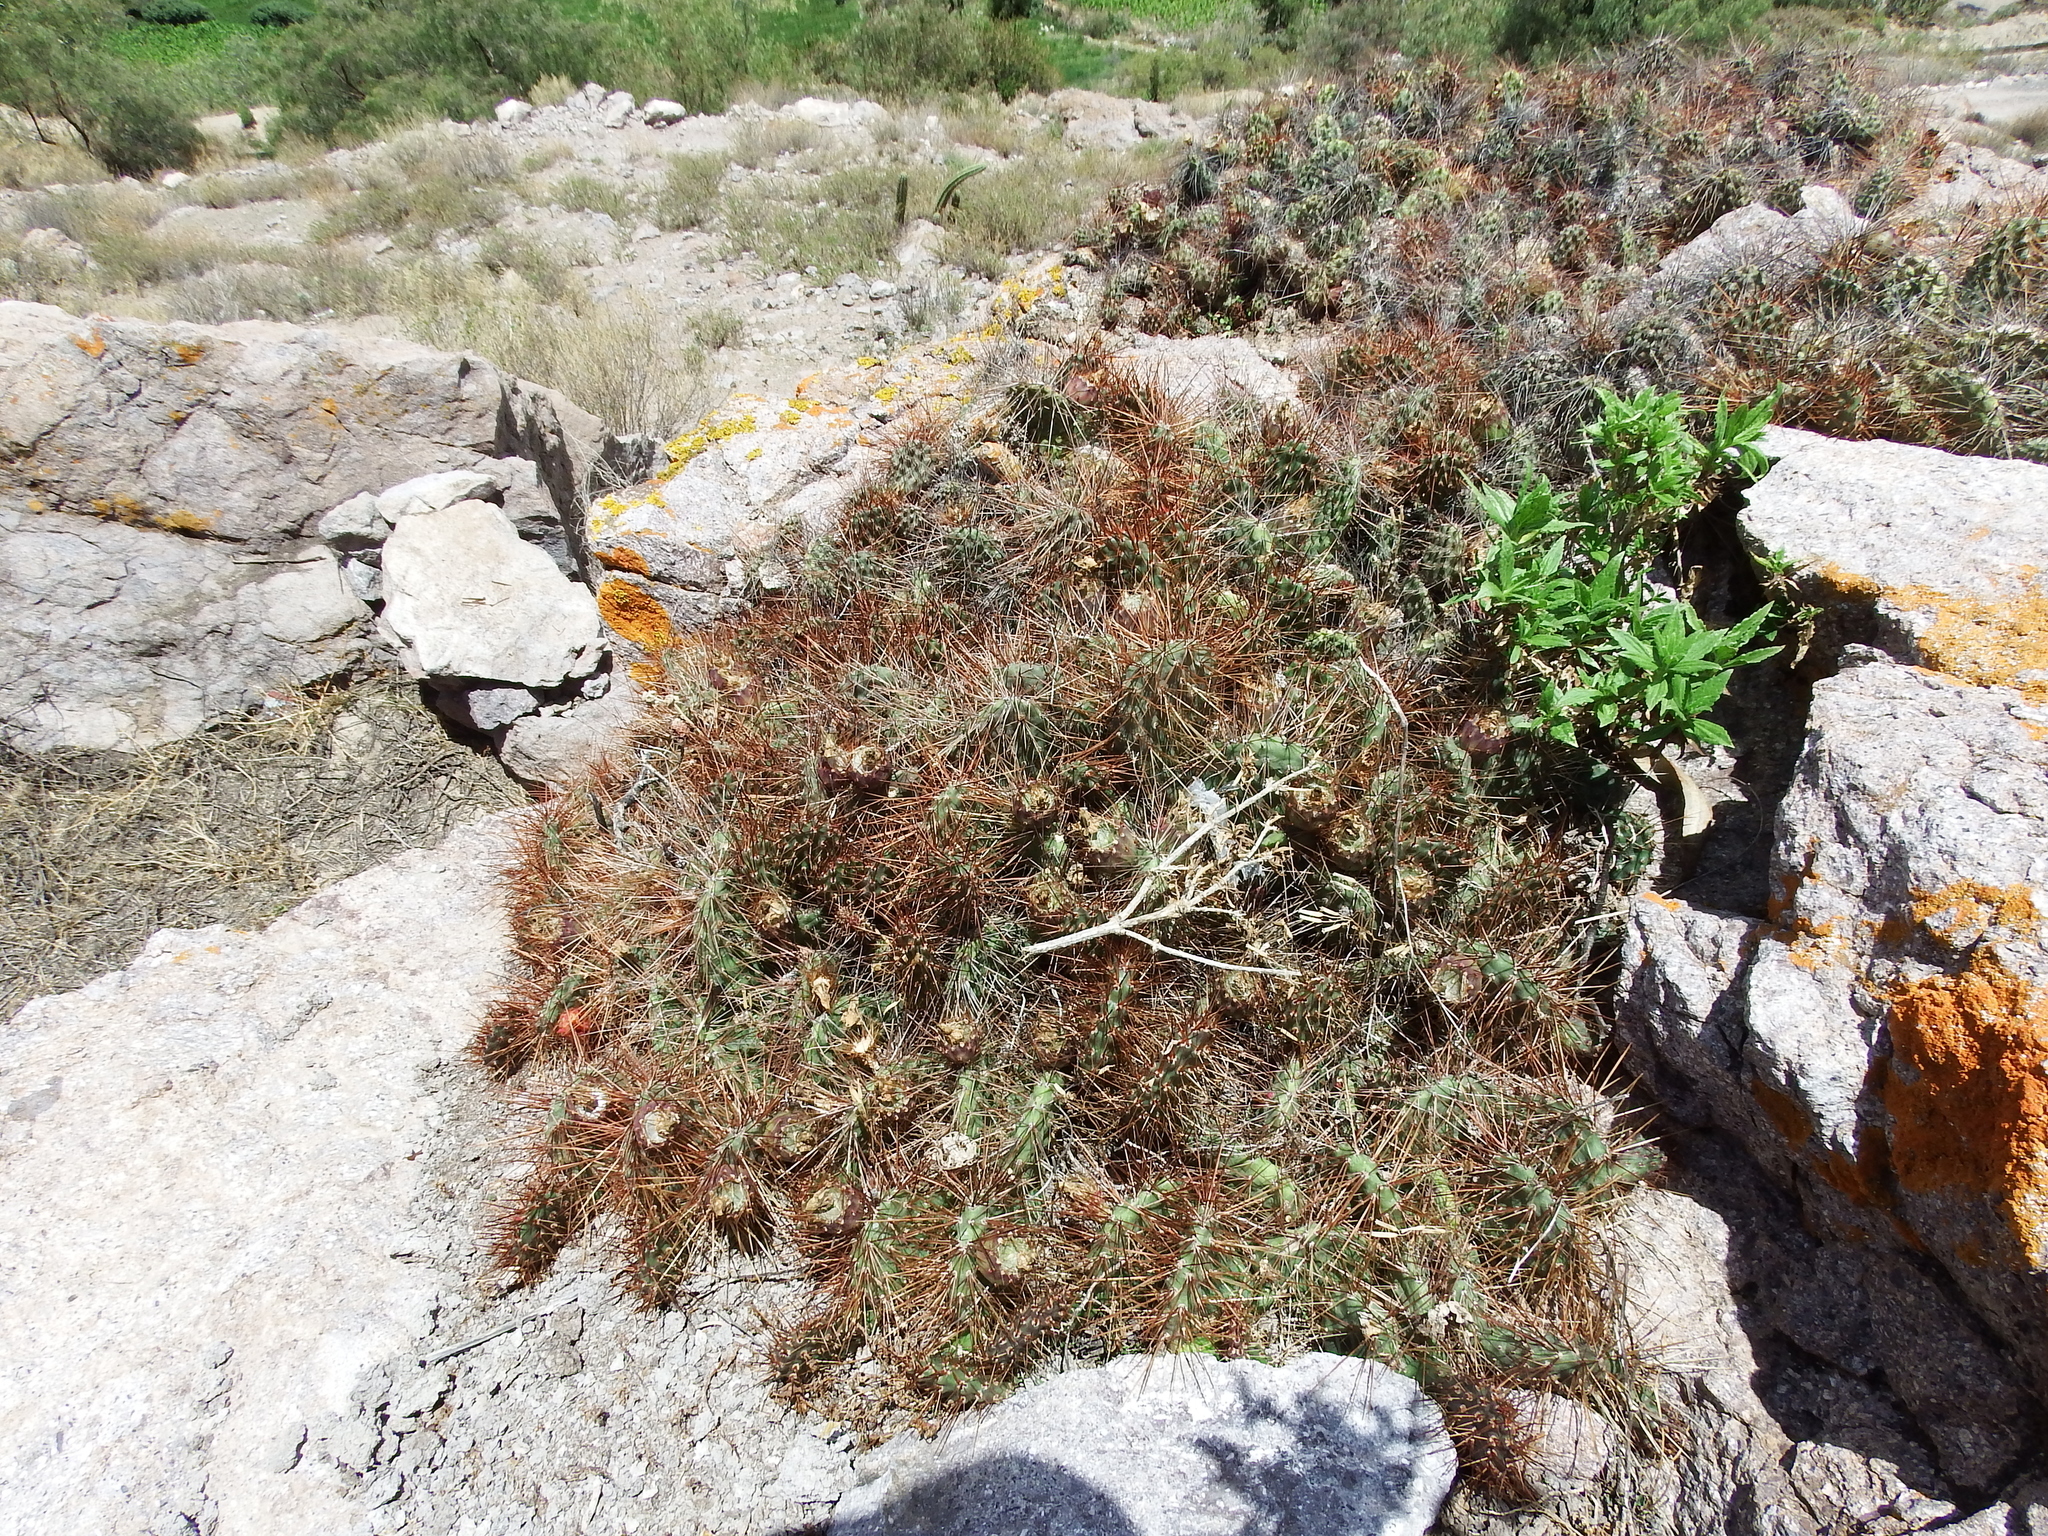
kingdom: Plantae
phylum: Tracheophyta
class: Magnoliopsida
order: Caryophyllales
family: Cactaceae
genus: Airampoa
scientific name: Airampoa soehrensii
